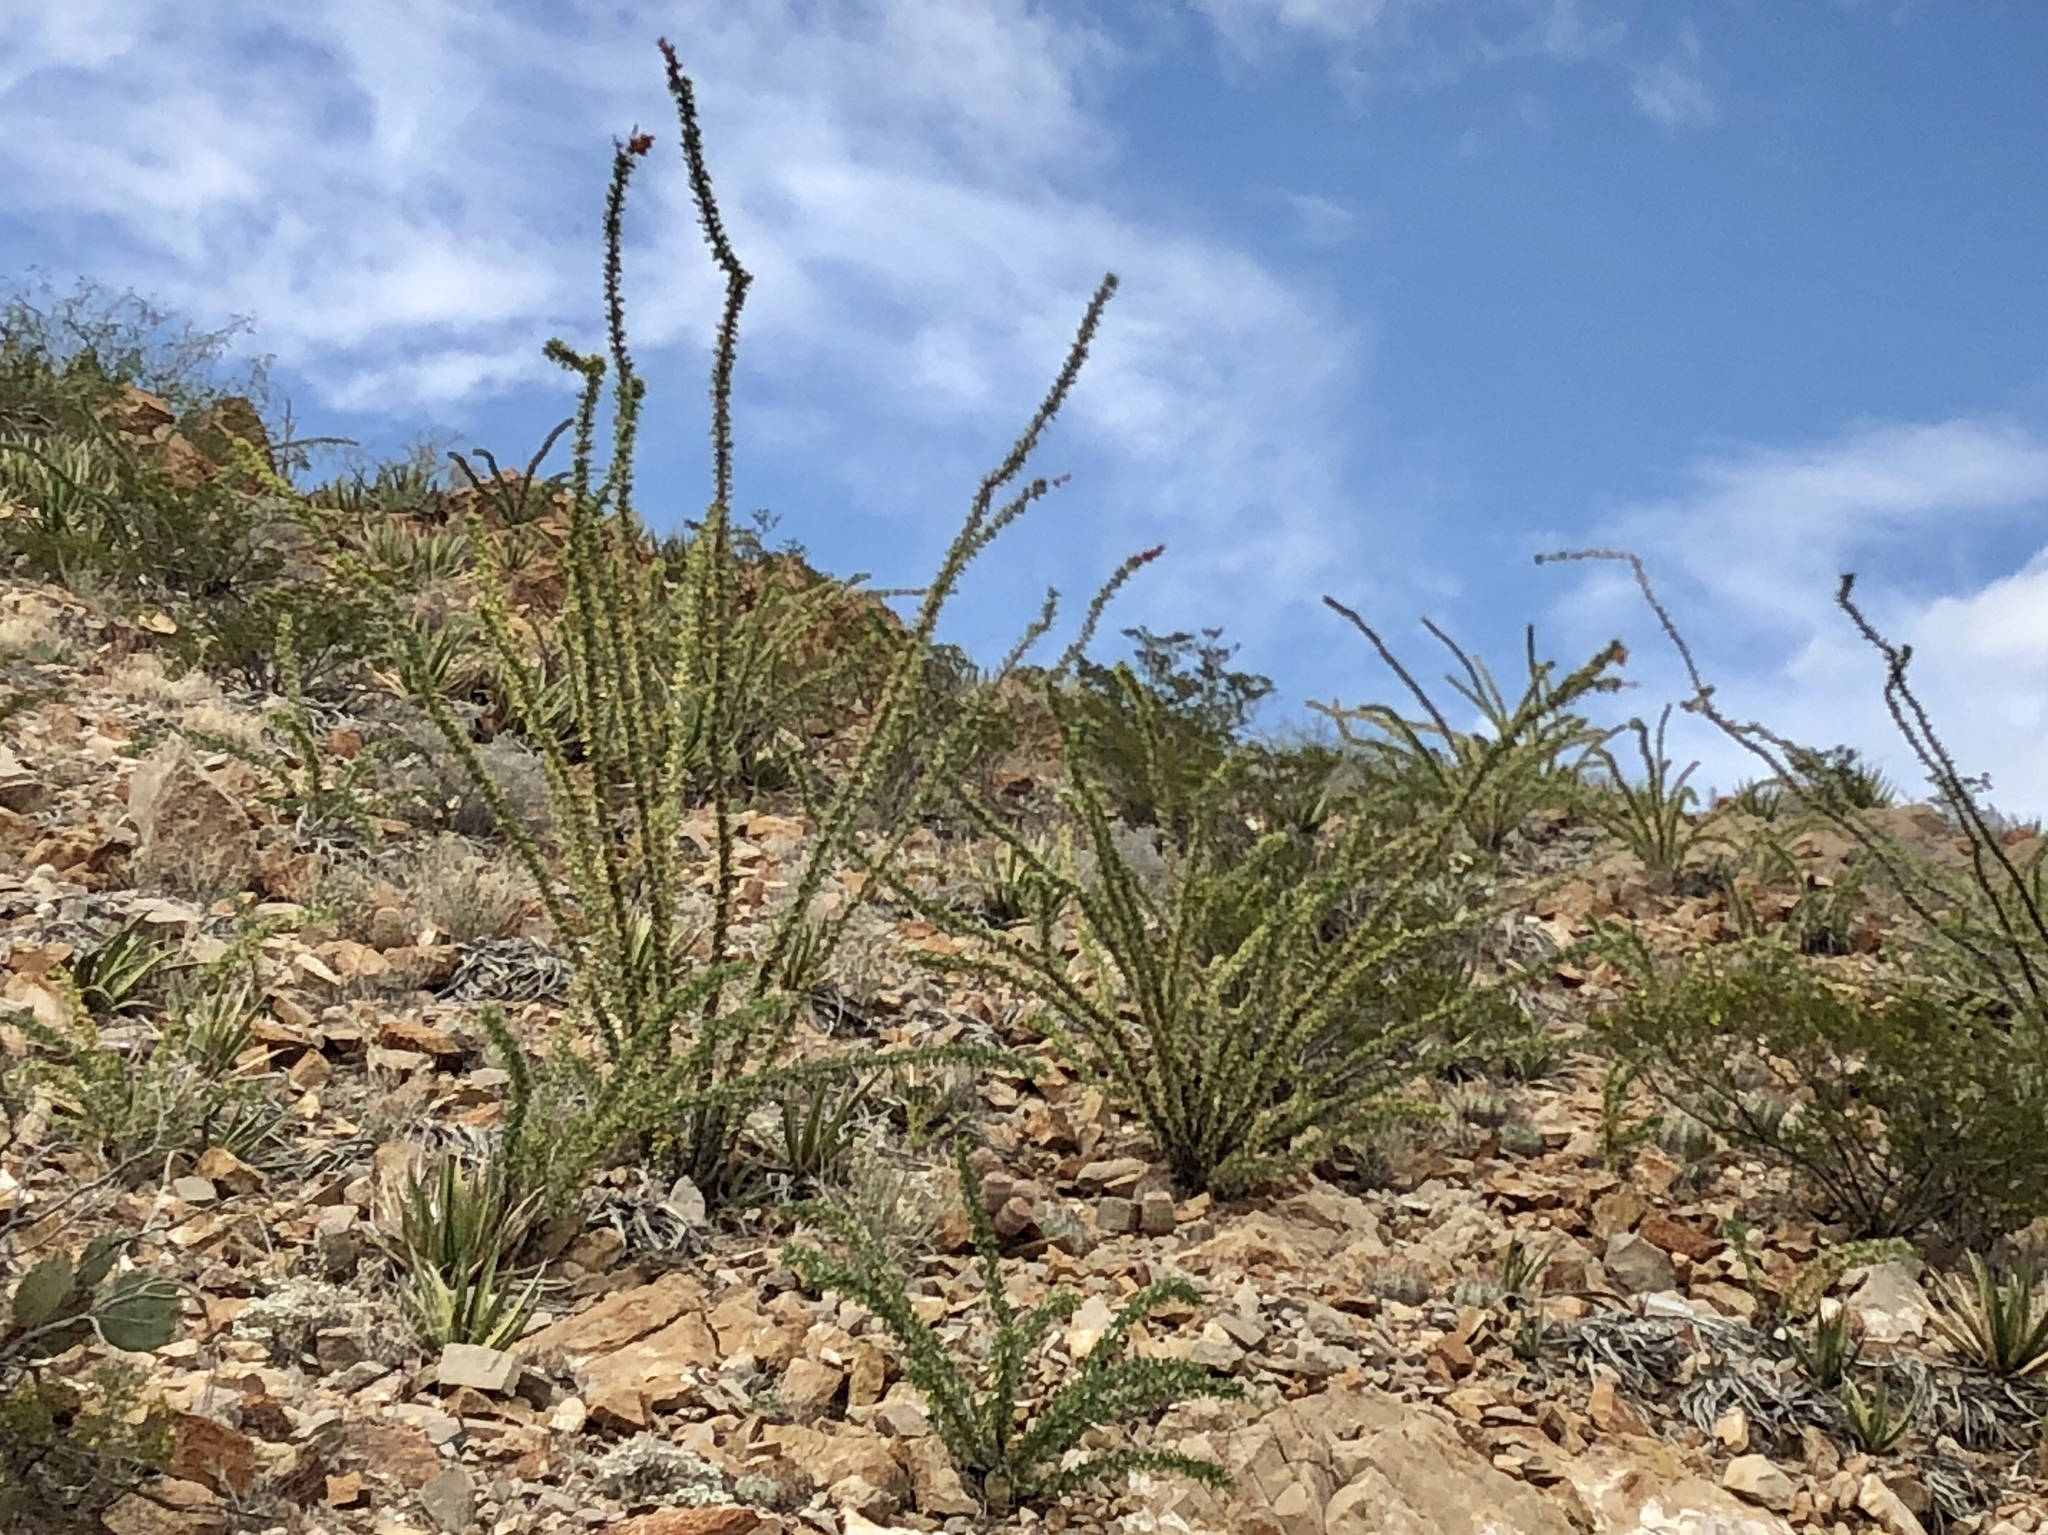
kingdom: Plantae
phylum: Tracheophyta
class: Magnoliopsida
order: Ericales
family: Fouquieriaceae
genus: Fouquieria
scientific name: Fouquieria splendens
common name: Vine-cactus
